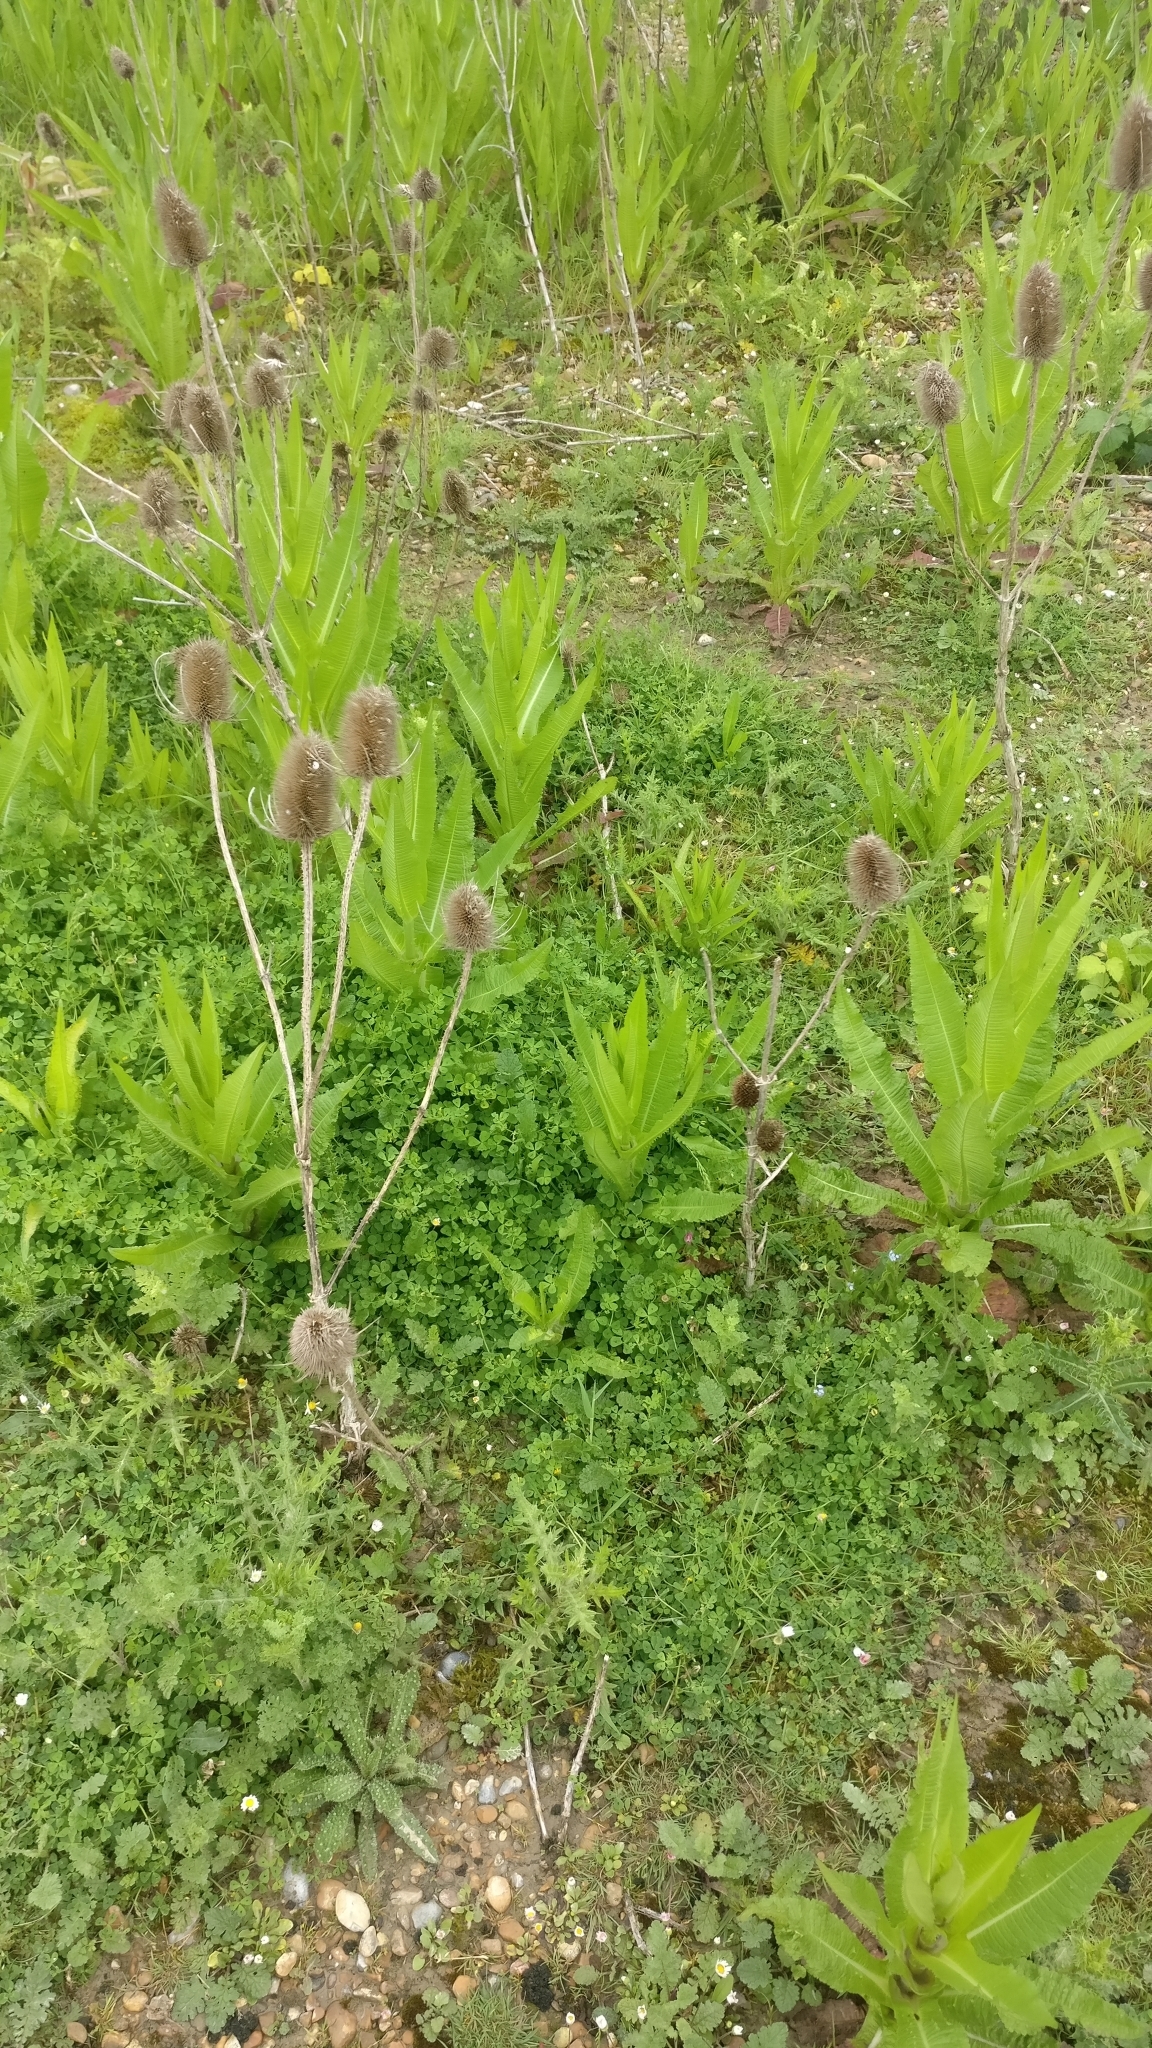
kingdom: Plantae
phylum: Tracheophyta
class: Magnoliopsida
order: Dipsacales
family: Caprifoliaceae
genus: Dipsacus
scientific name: Dipsacus fullonum
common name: Teasel
